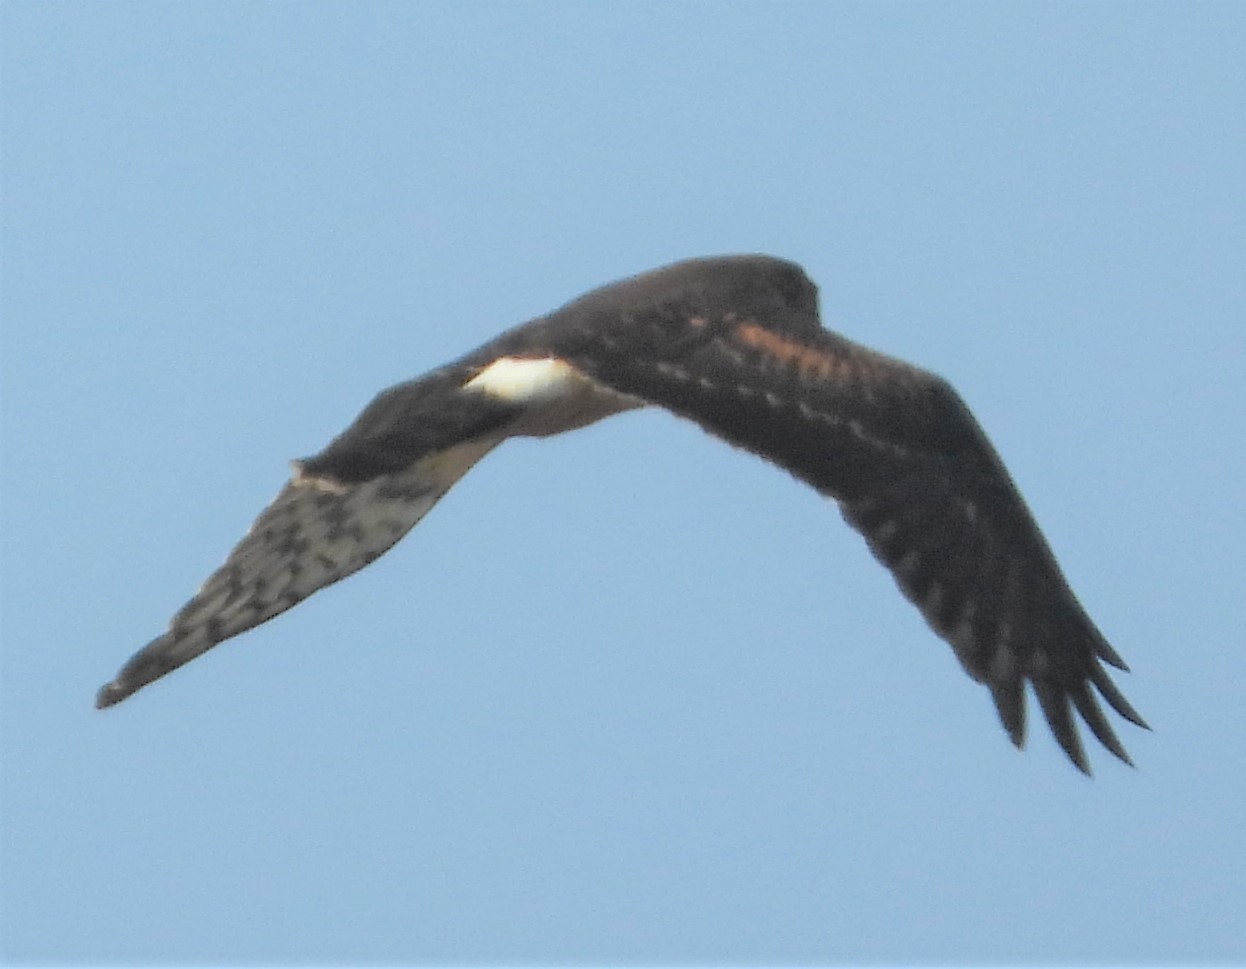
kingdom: Animalia
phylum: Chordata
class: Aves
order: Accipitriformes
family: Accipitridae
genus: Circus
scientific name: Circus cyaneus
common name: Hen harrier
